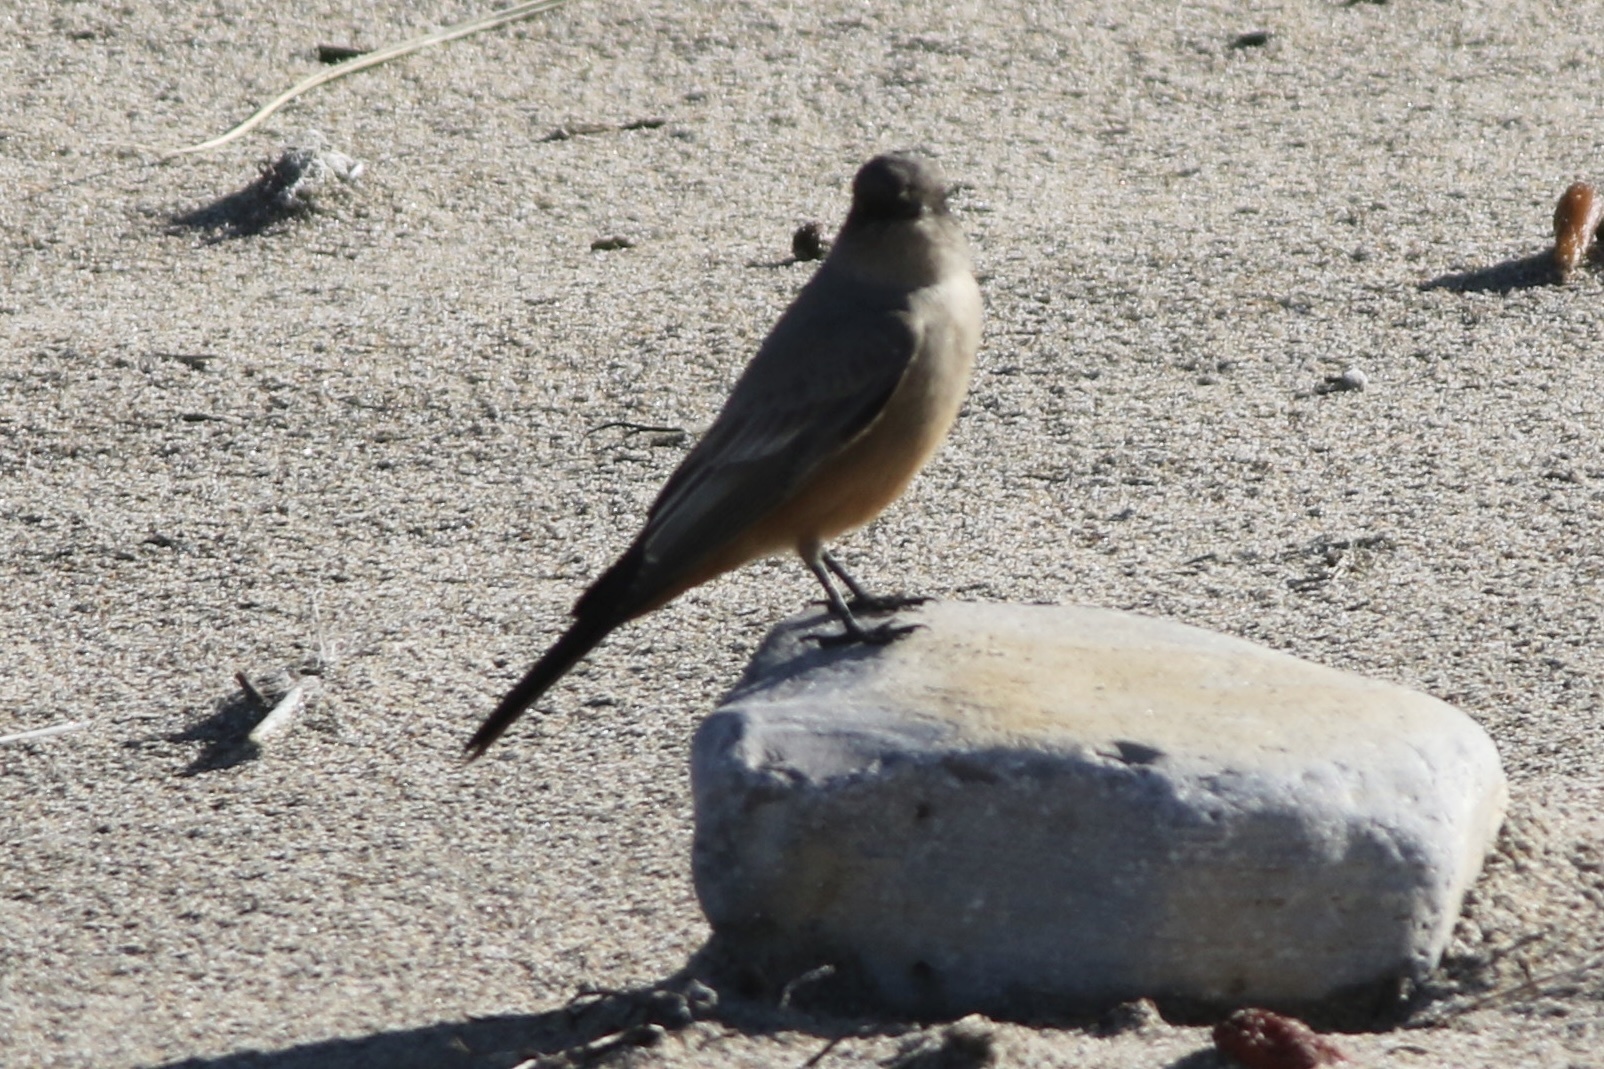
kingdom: Animalia
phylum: Chordata
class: Aves
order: Passeriformes
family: Tyrannidae
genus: Sayornis
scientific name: Sayornis saya
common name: Say's phoebe
